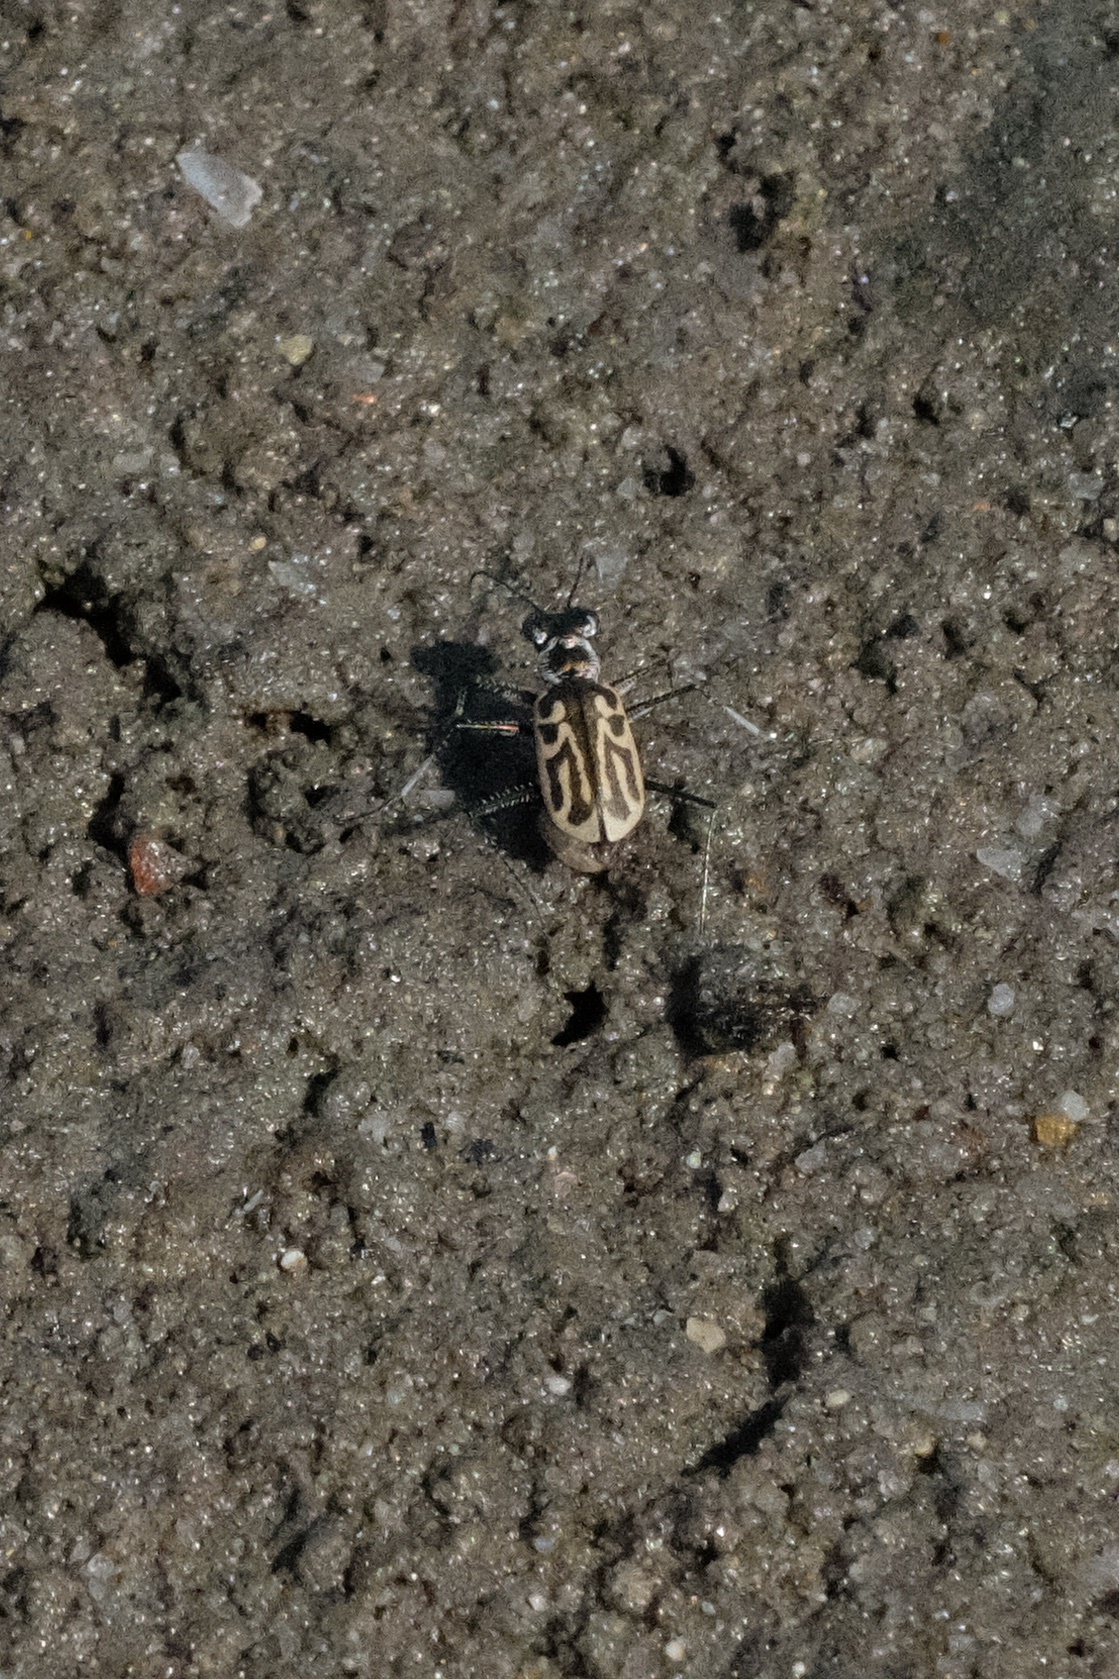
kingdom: Animalia
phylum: Arthropoda
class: Insecta
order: Coleoptera
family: Carabidae
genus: Eunota
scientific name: Eunota gabbii
